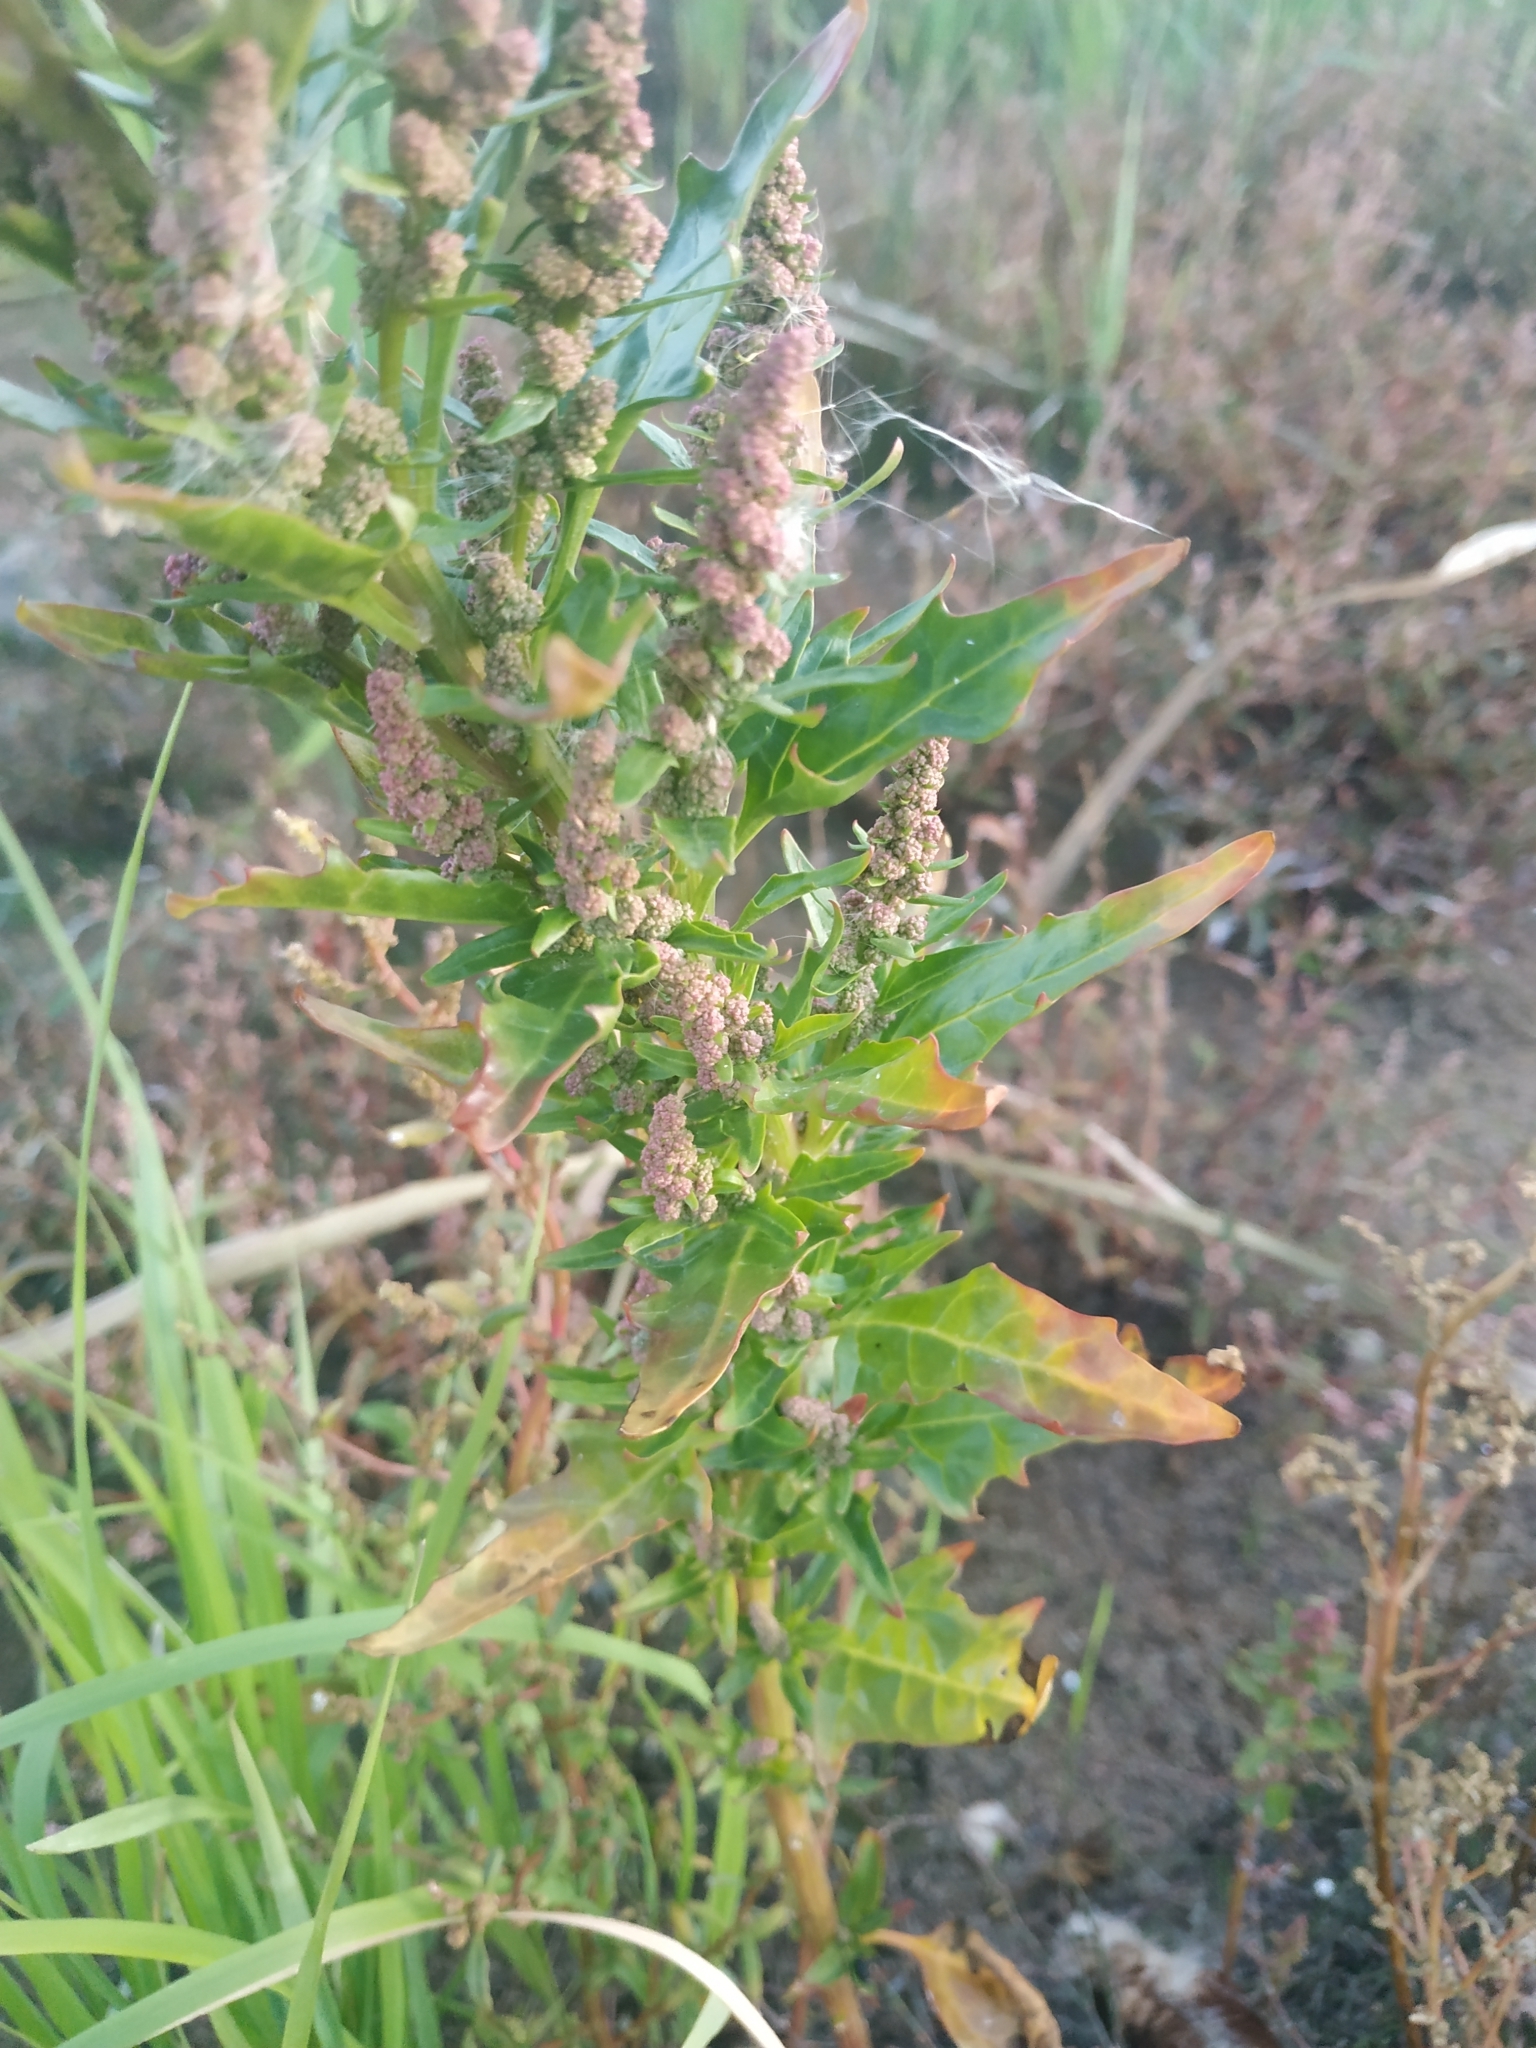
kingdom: Plantae
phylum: Tracheophyta
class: Magnoliopsida
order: Caryophyllales
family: Amaranthaceae
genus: Oxybasis
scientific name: Oxybasis rubra
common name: Red goosefoot
